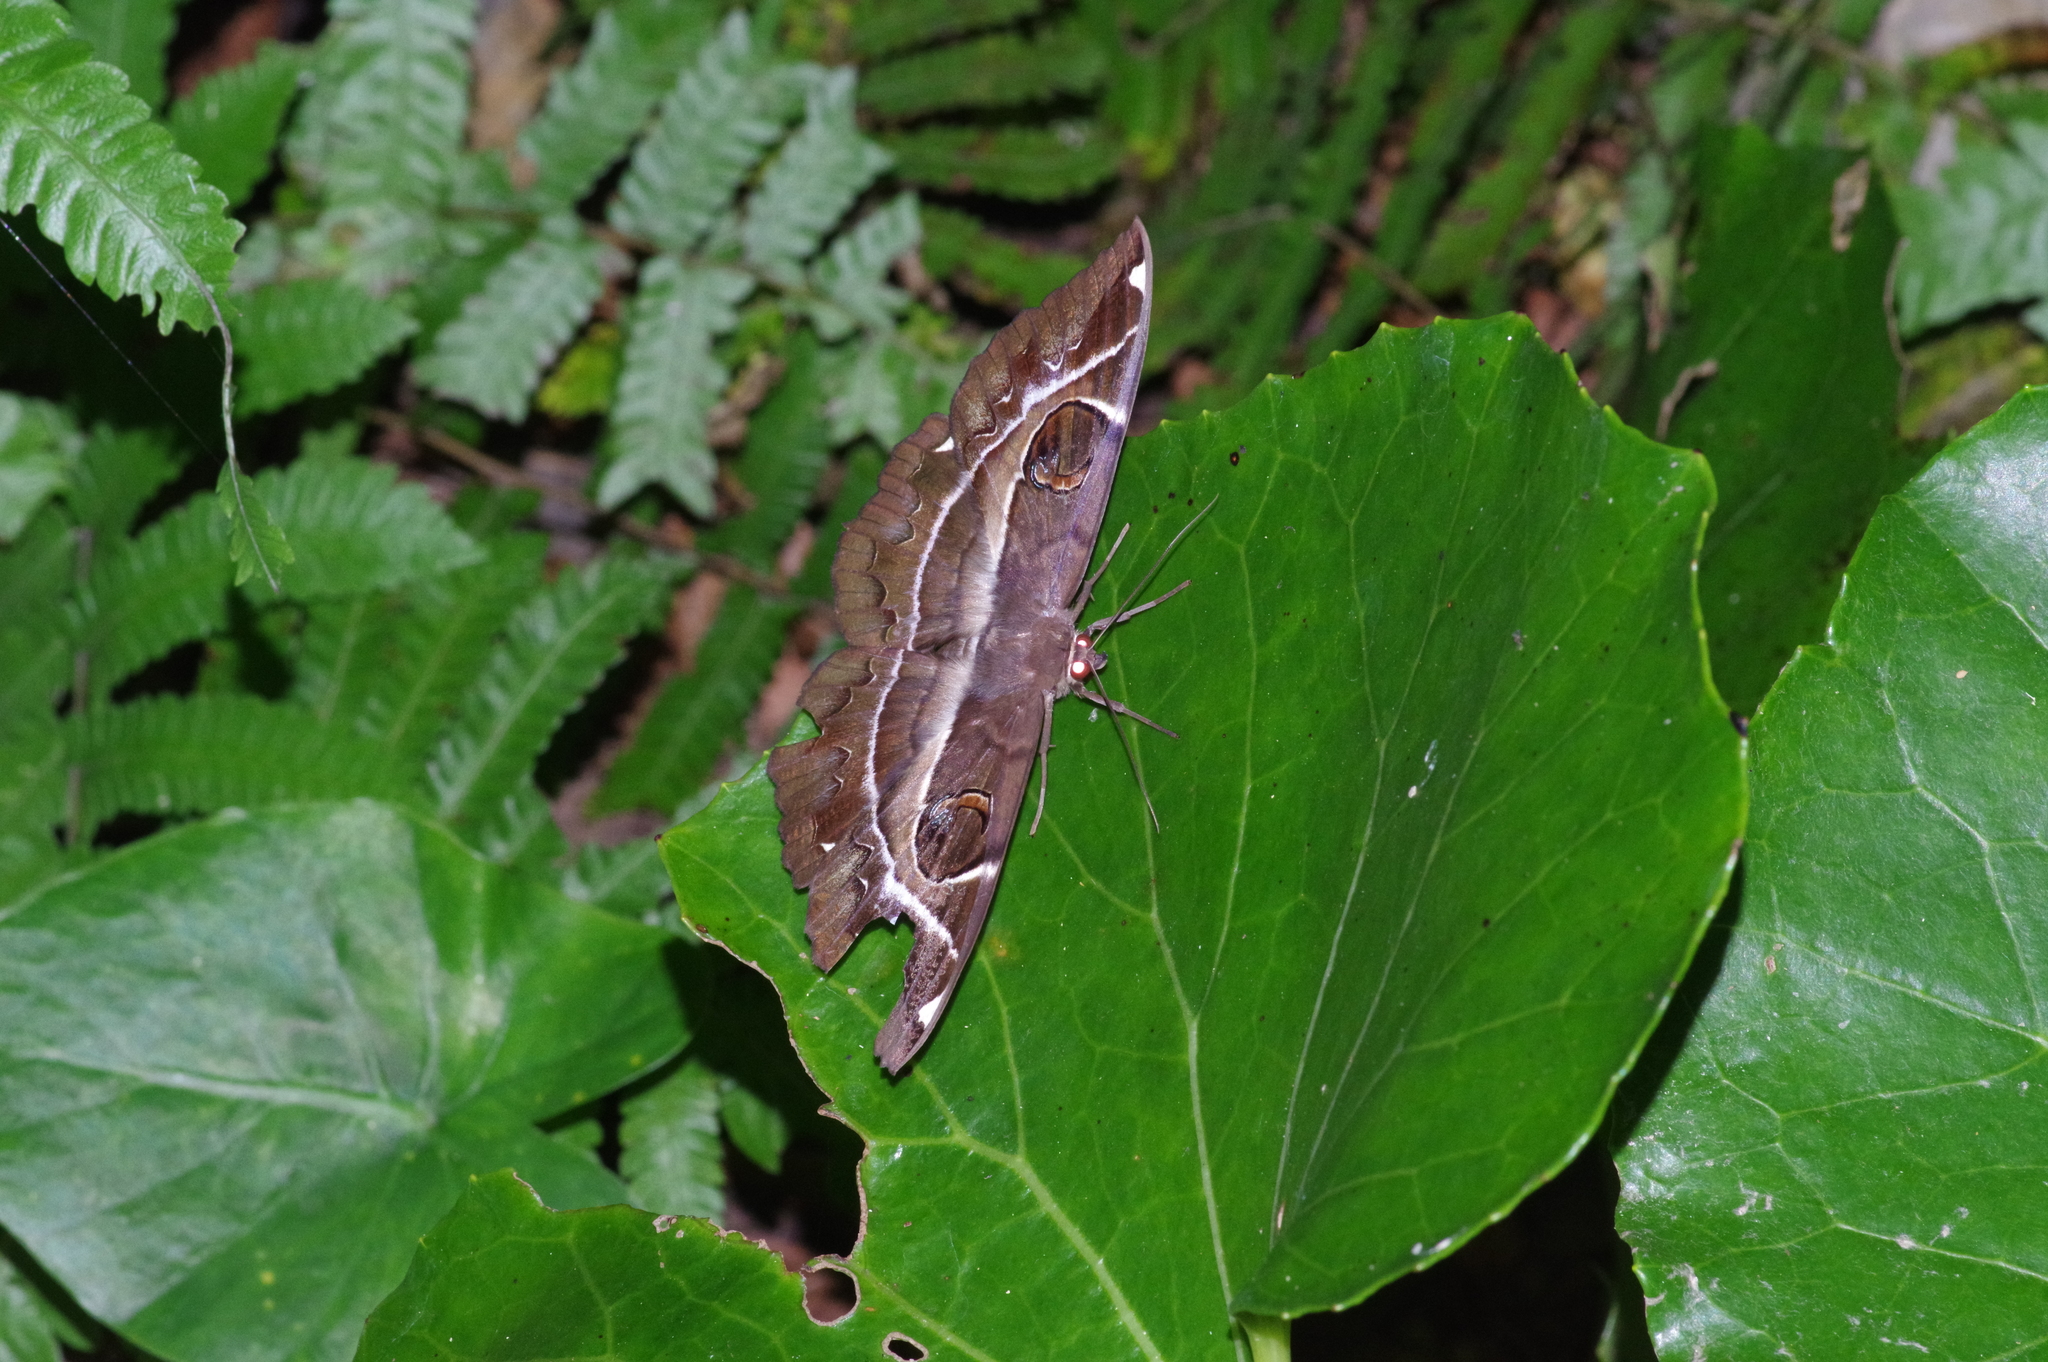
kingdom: Animalia
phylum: Arthropoda
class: Insecta
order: Lepidoptera
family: Erebidae
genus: Erebus
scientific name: Erebus ephesperis
